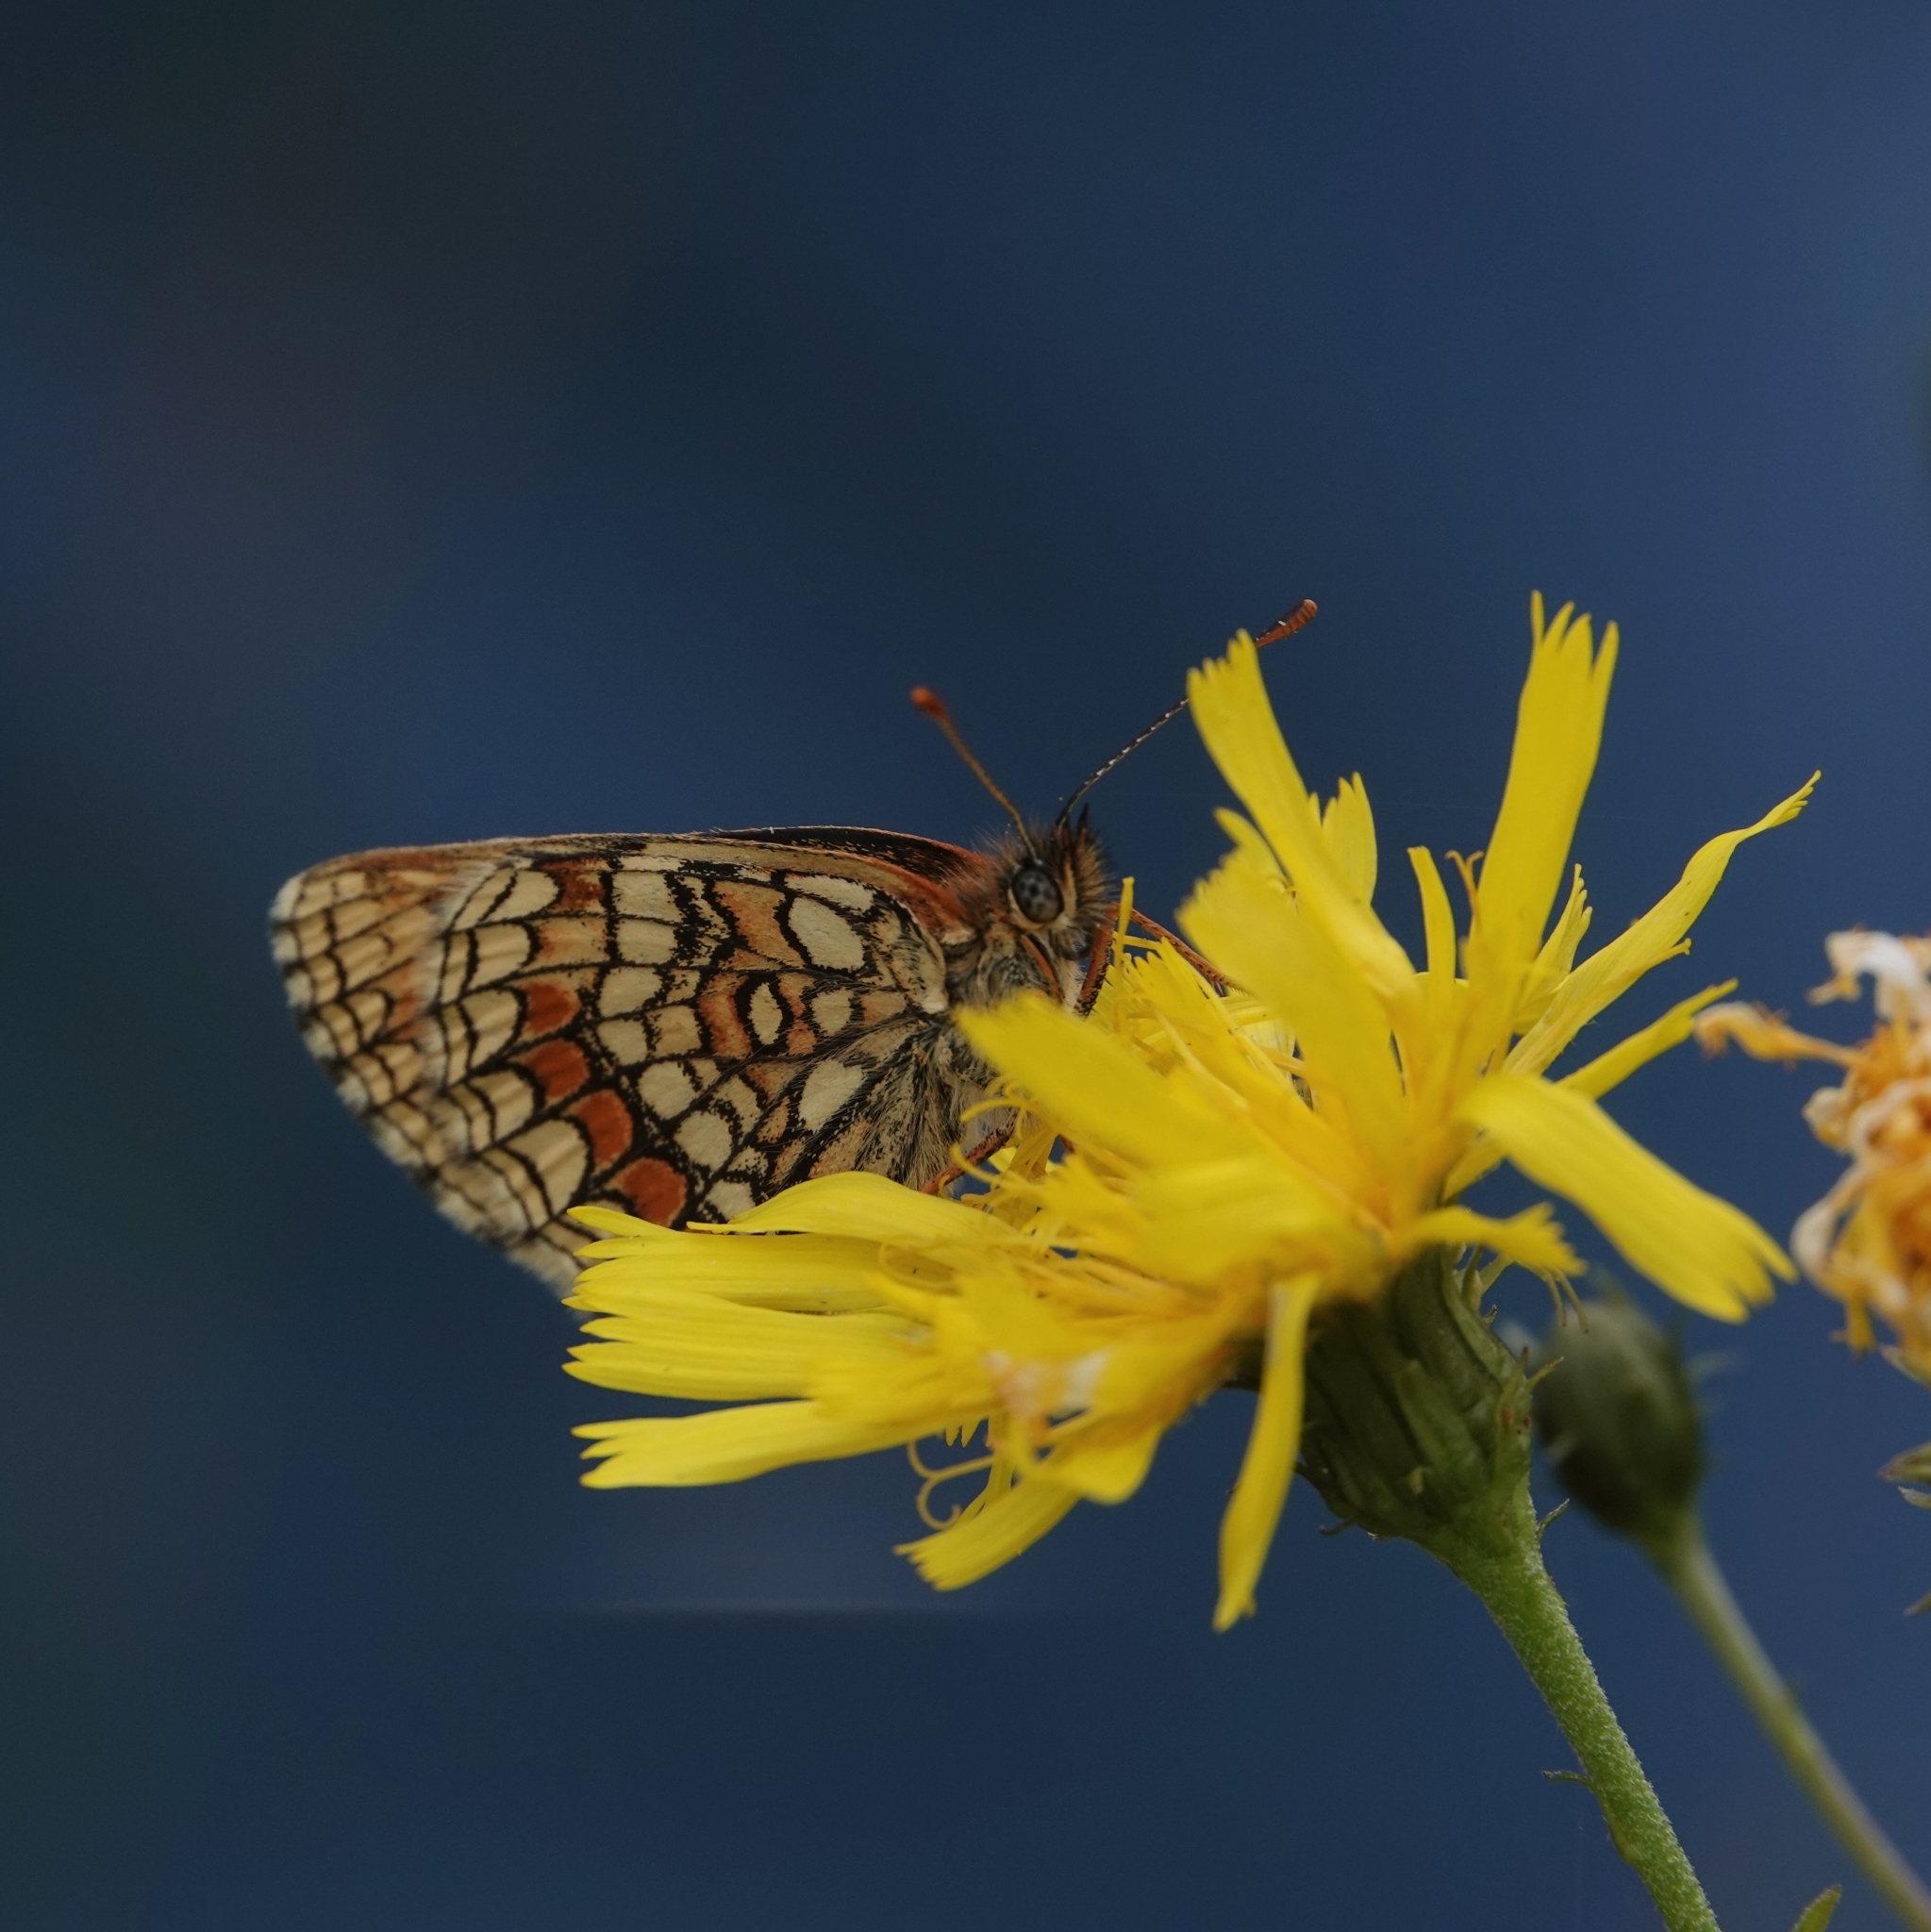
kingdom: Animalia
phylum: Arthropoda
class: Insecta
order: Lepidoptera
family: Nymphalidae
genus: Melitaea
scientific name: Melitaea athalia
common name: Heath fritillary
